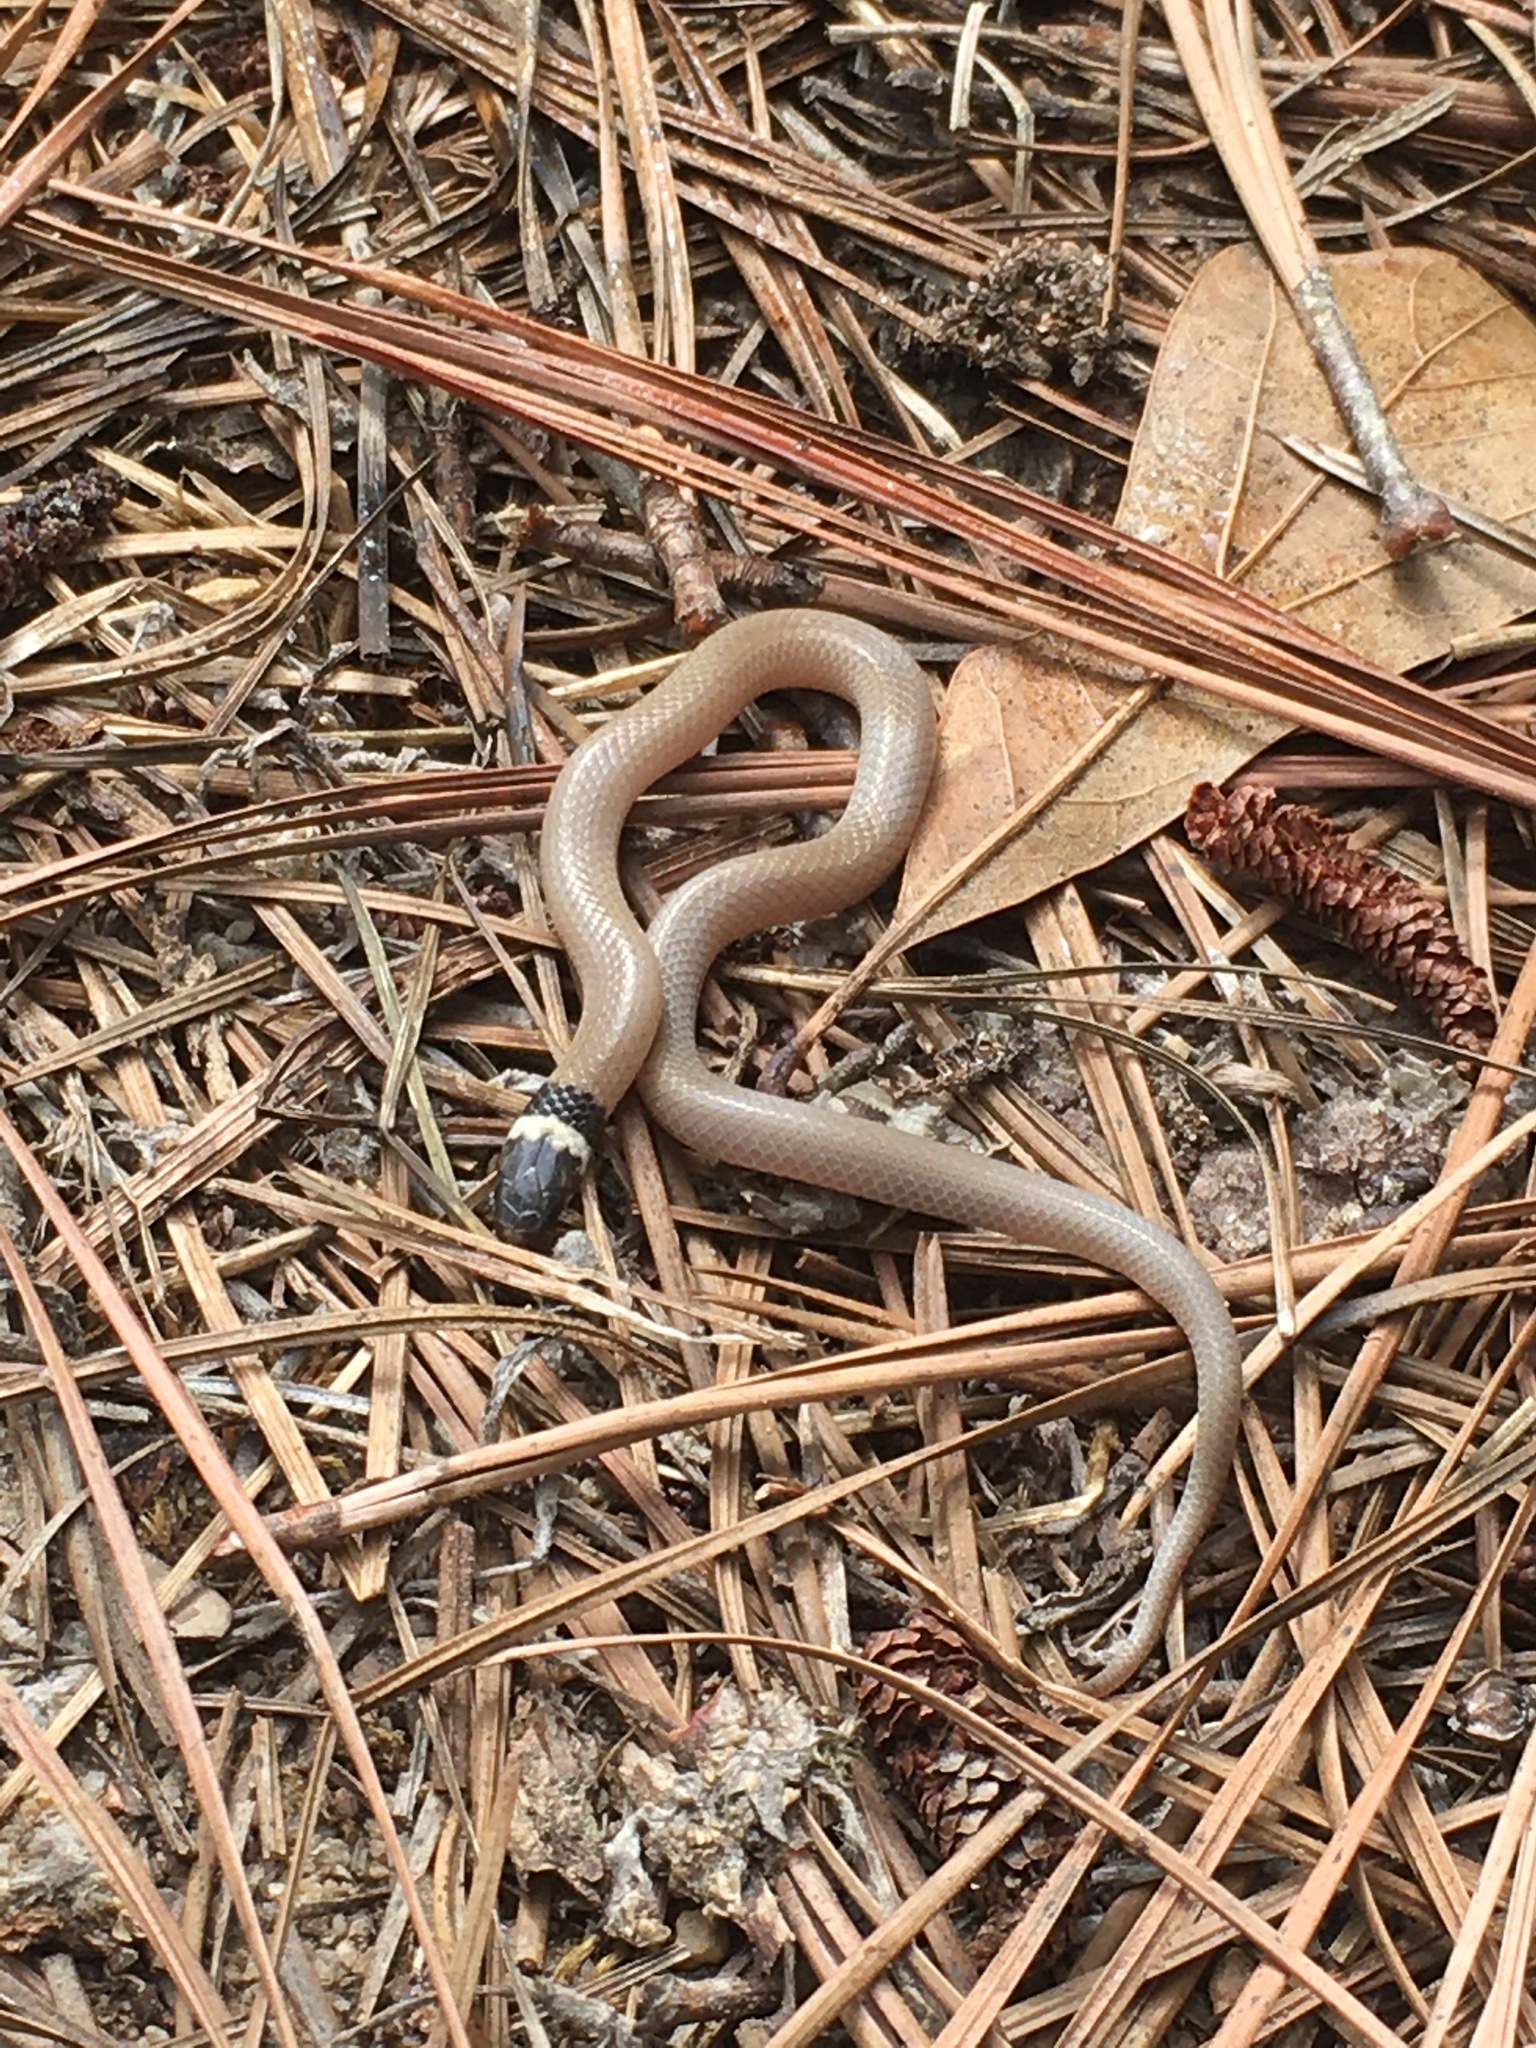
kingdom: Animalia
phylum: Chordata
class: Squamata
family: Colubridae
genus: Tantilla
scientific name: Tantilla coronata
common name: Southeastern crowned snake
